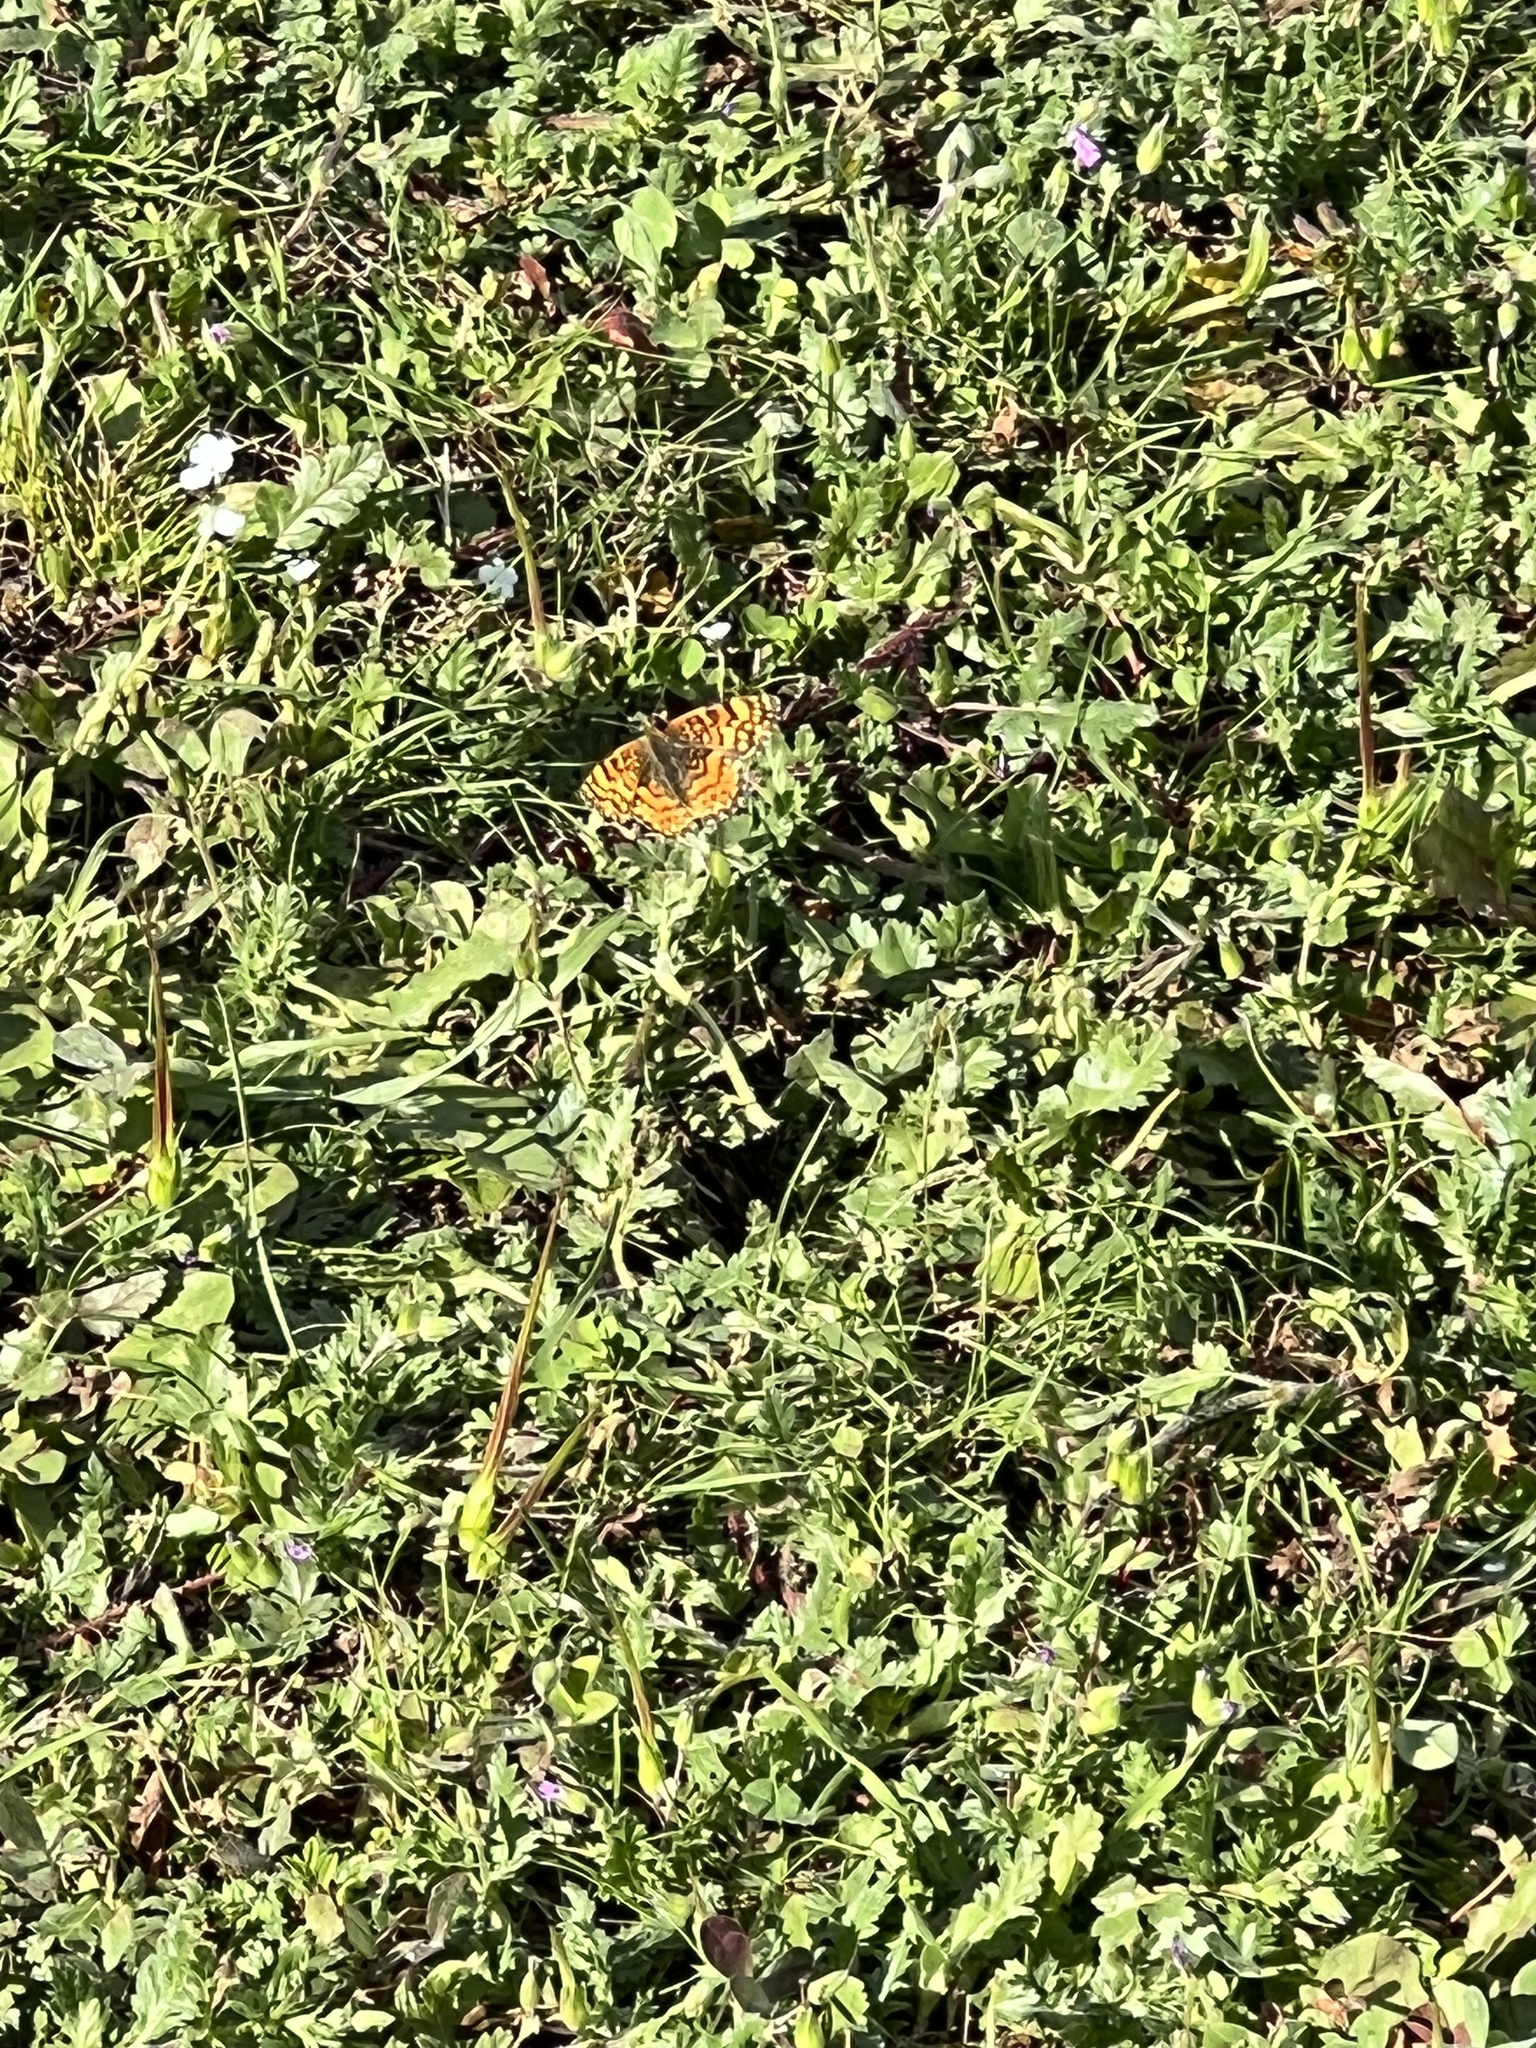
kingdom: Animalia
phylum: Arthropoda
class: Insecta
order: Lepidoptera
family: Nymphalidae
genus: Eresia
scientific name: Eresia aveyrona
